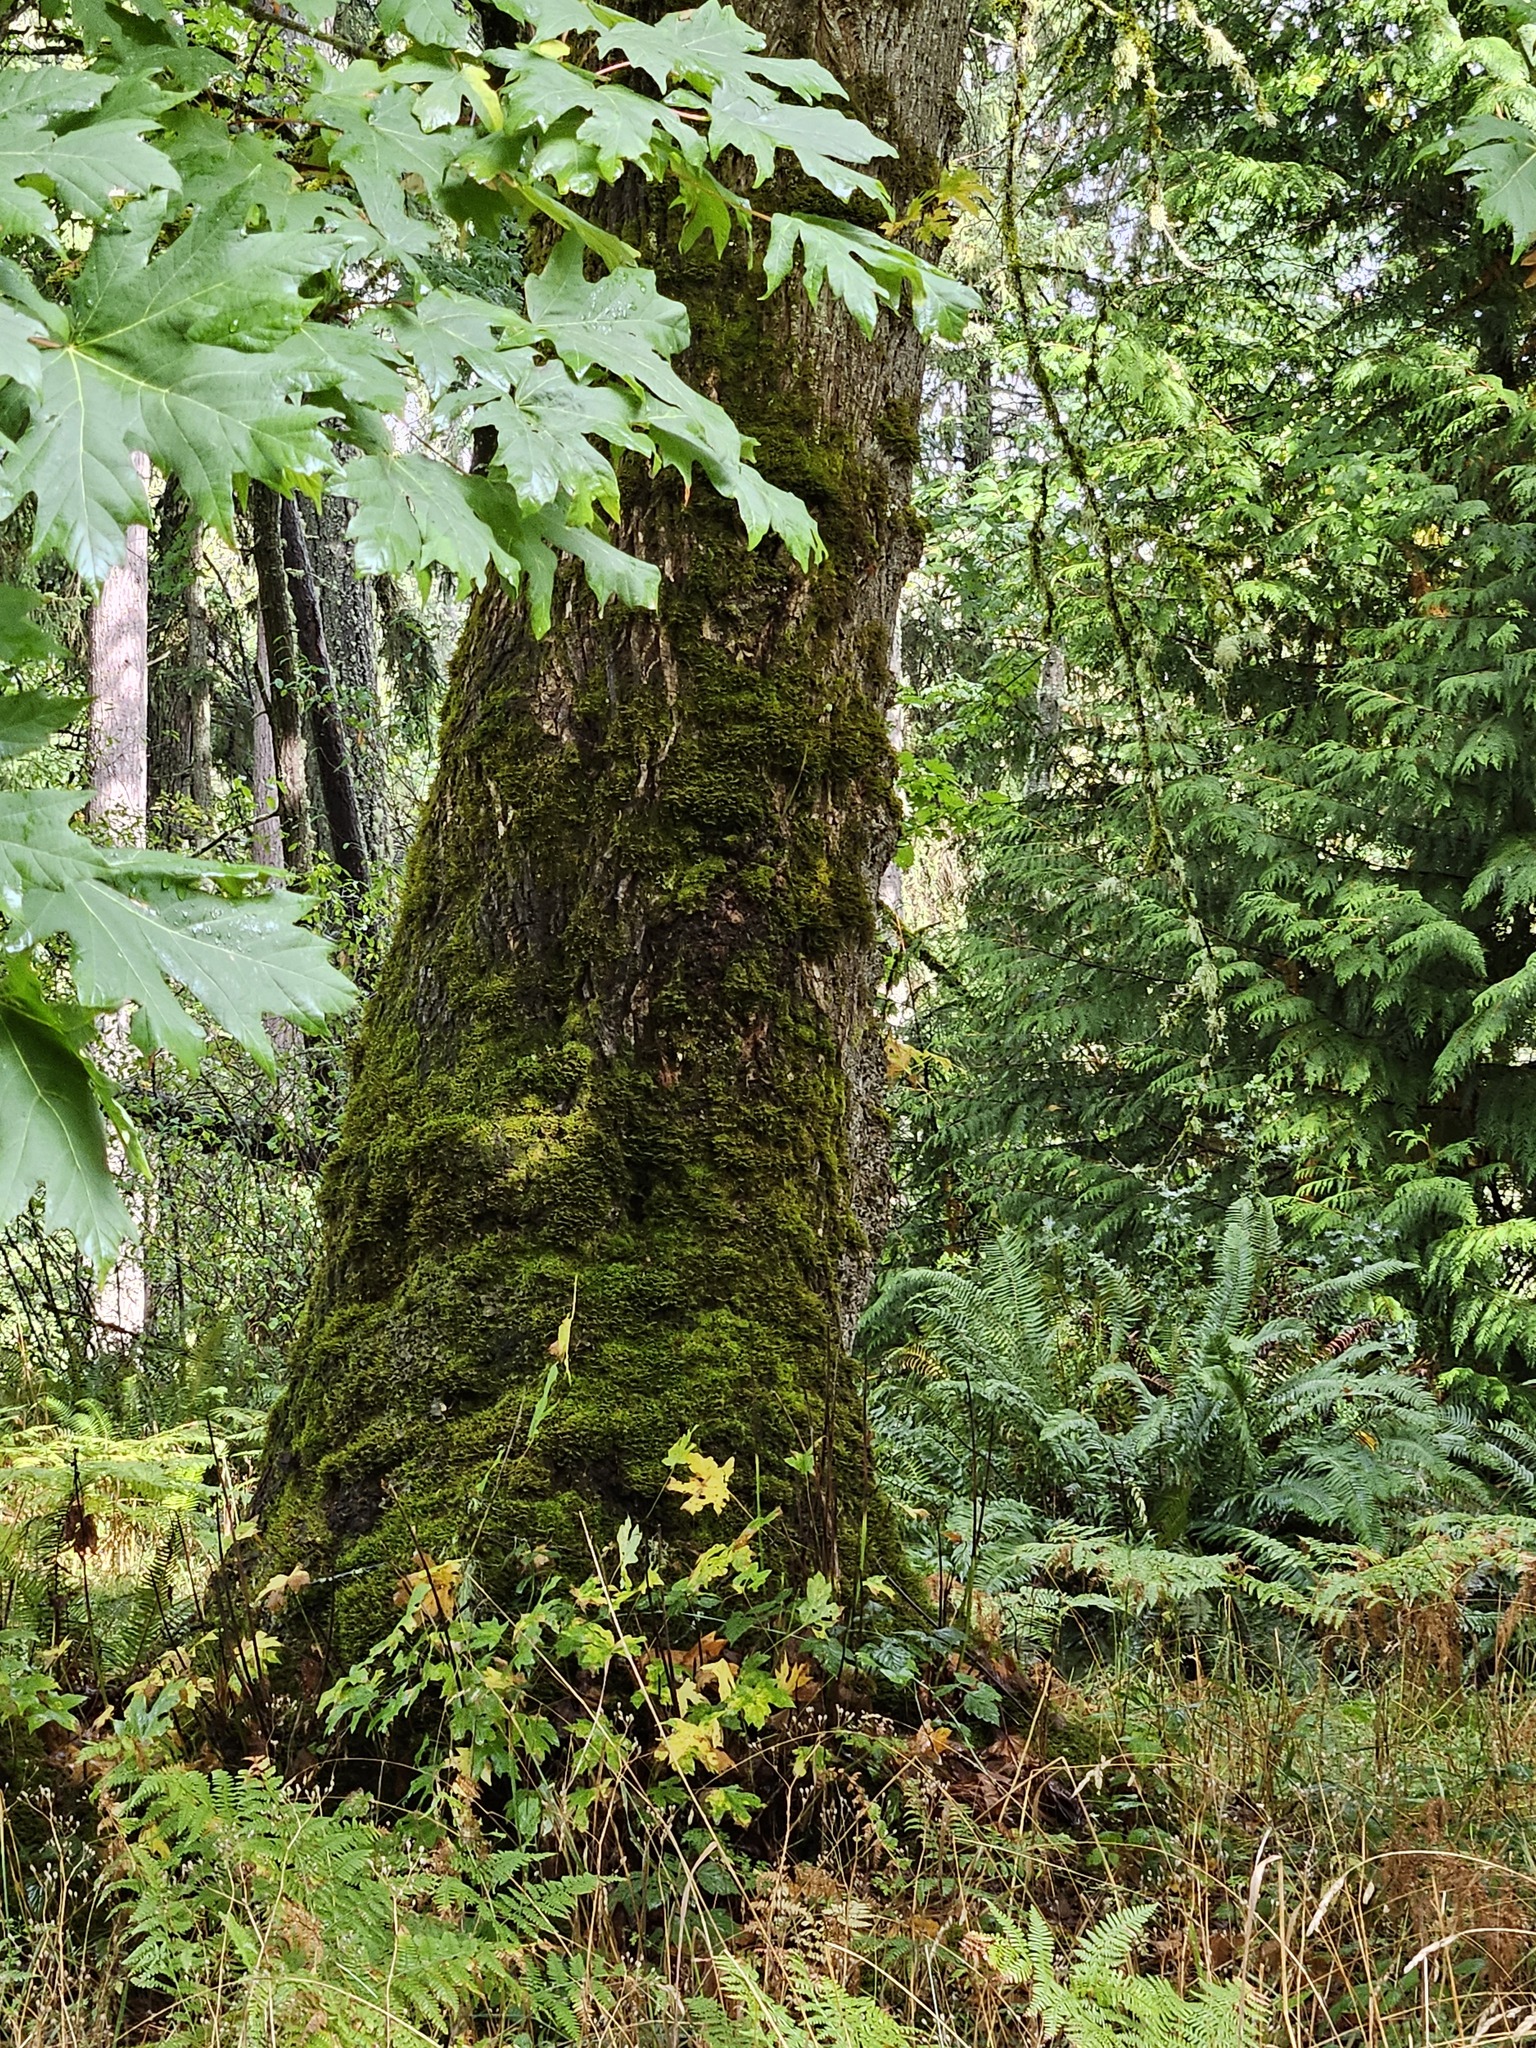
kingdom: Plantae
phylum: Tracheophyta
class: Magnoliopsida
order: Sapindales
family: Sapindaceae
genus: Acer
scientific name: Acer macrophyllum
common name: Oregon maple
